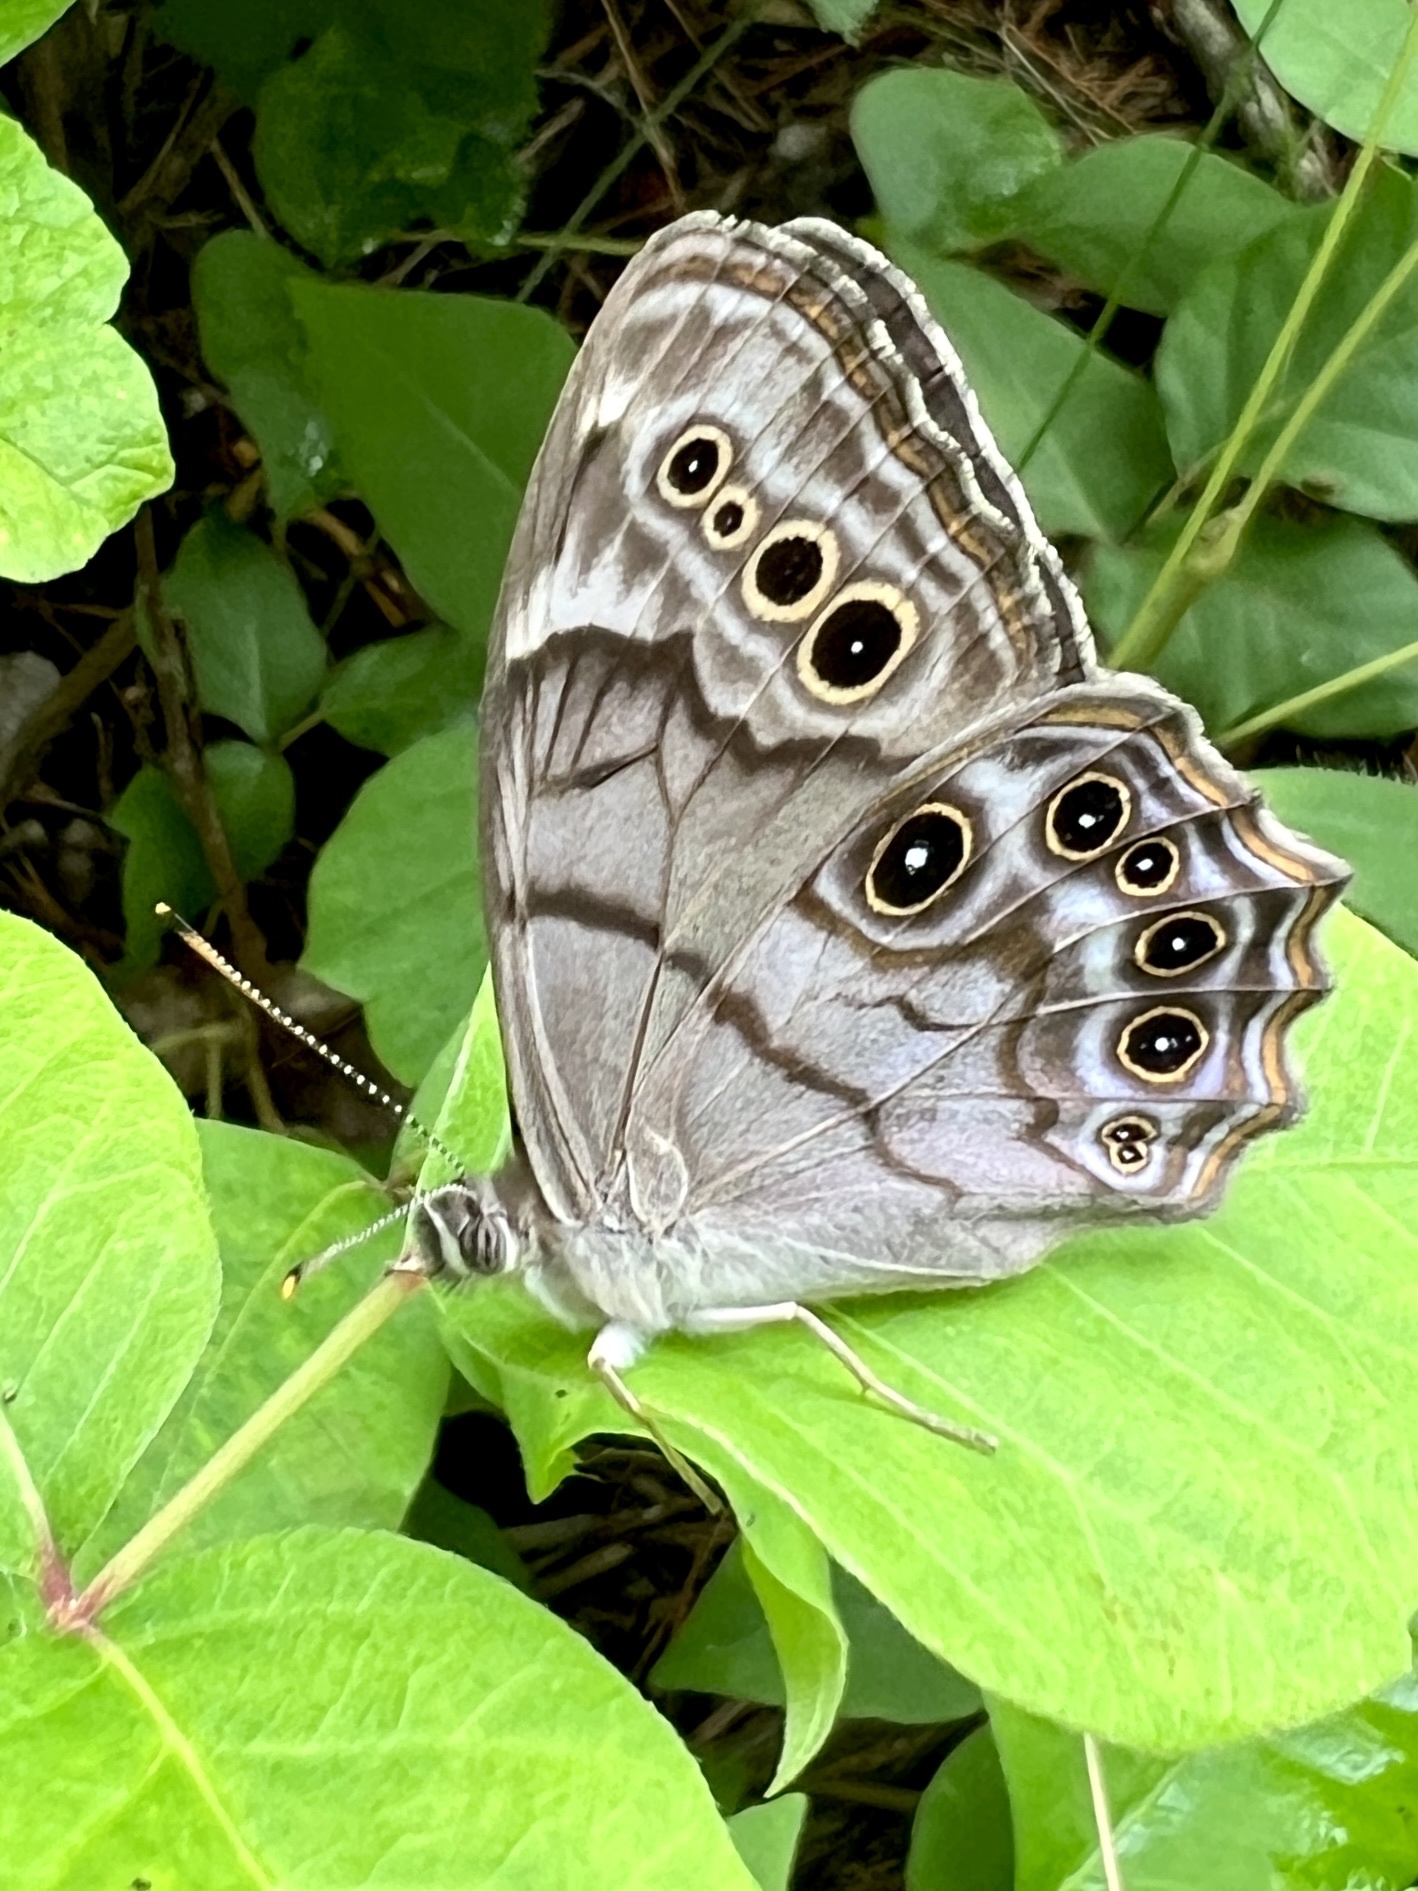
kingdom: Animalia
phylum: Arthropoda
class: Insecta
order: Lepidoptera
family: Nymphalidae
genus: Lethe
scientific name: Lethe anthedon
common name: Northern pearly-eye
